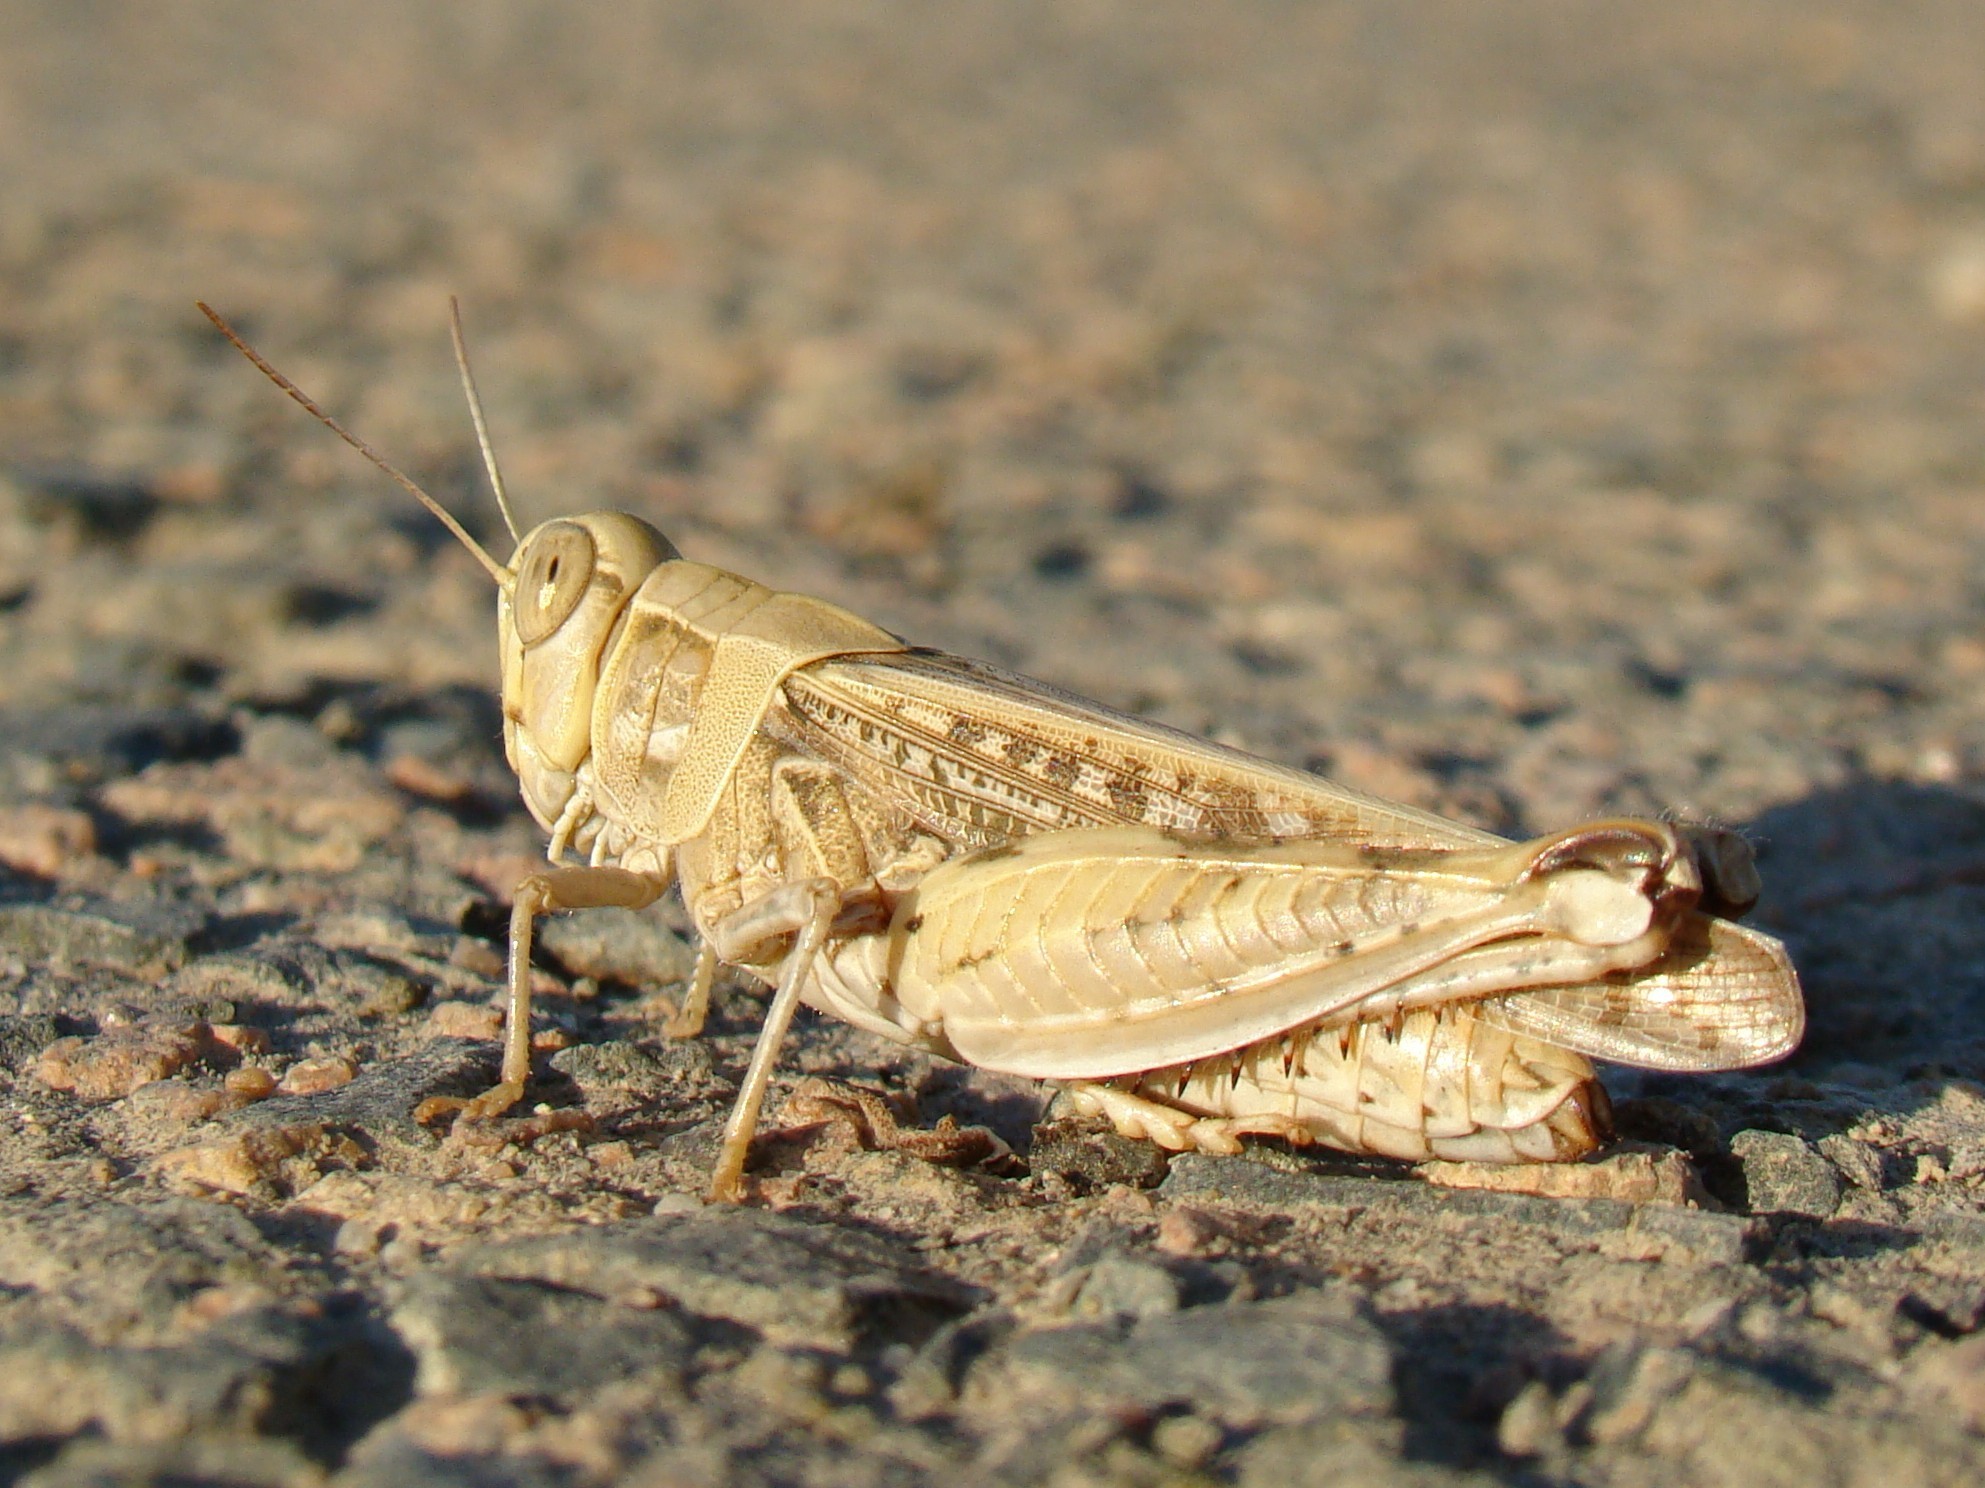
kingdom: Animalia
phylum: Arthropoda
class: Insecta
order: Orthoptera
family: Acrididae
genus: Calliptamus
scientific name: Calliptamus barbarus
